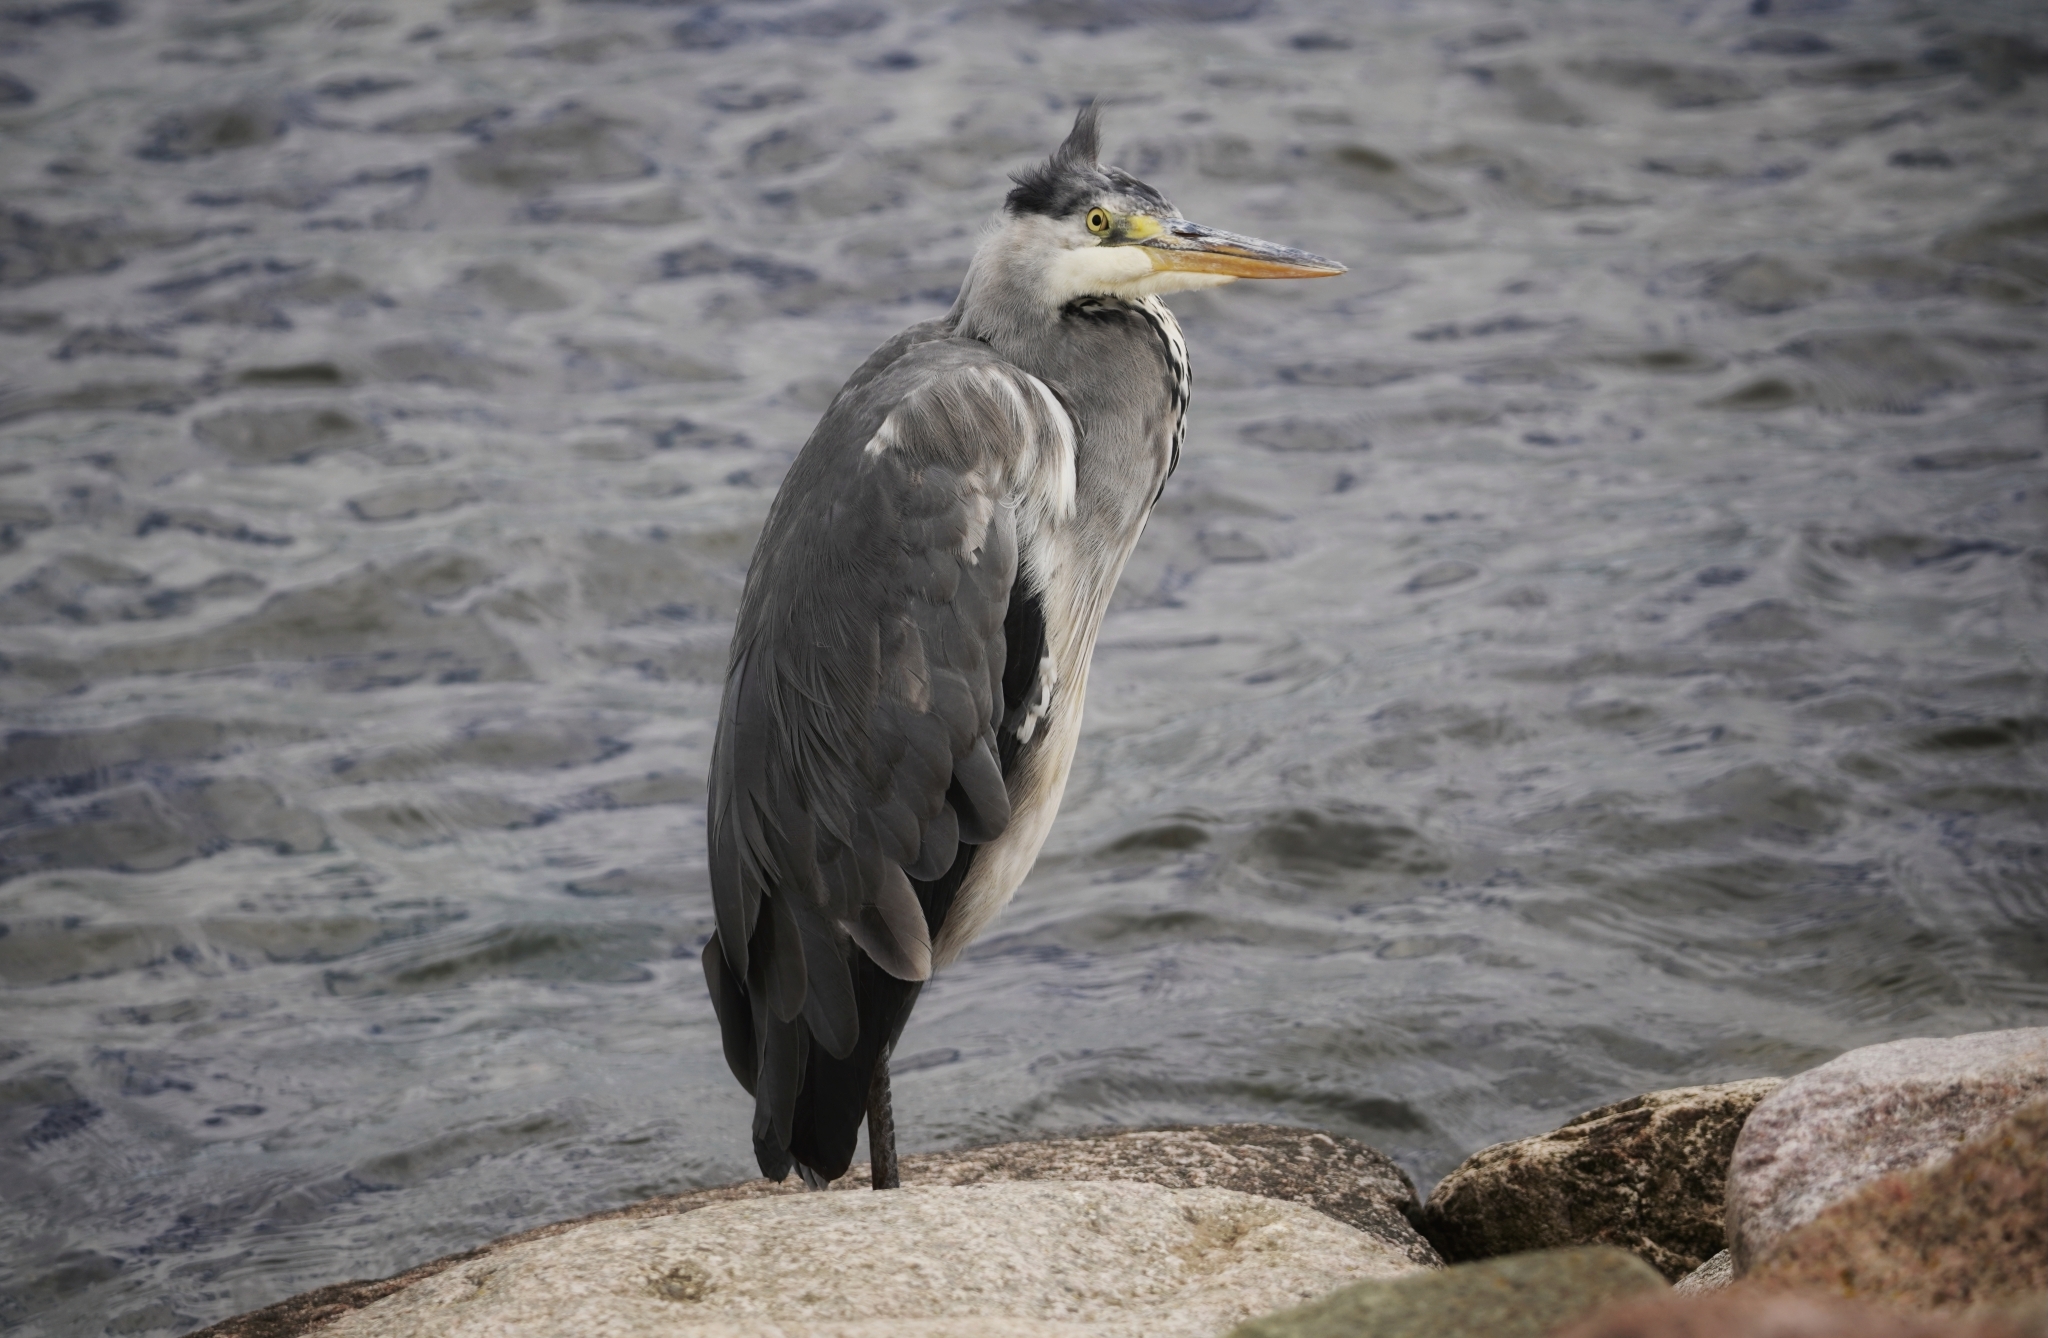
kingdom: Animalia
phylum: Chordata
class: Aves
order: Pelecaniformes
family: Ardeidae
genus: Ardea
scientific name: Ardea cinerea
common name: Grey heron
